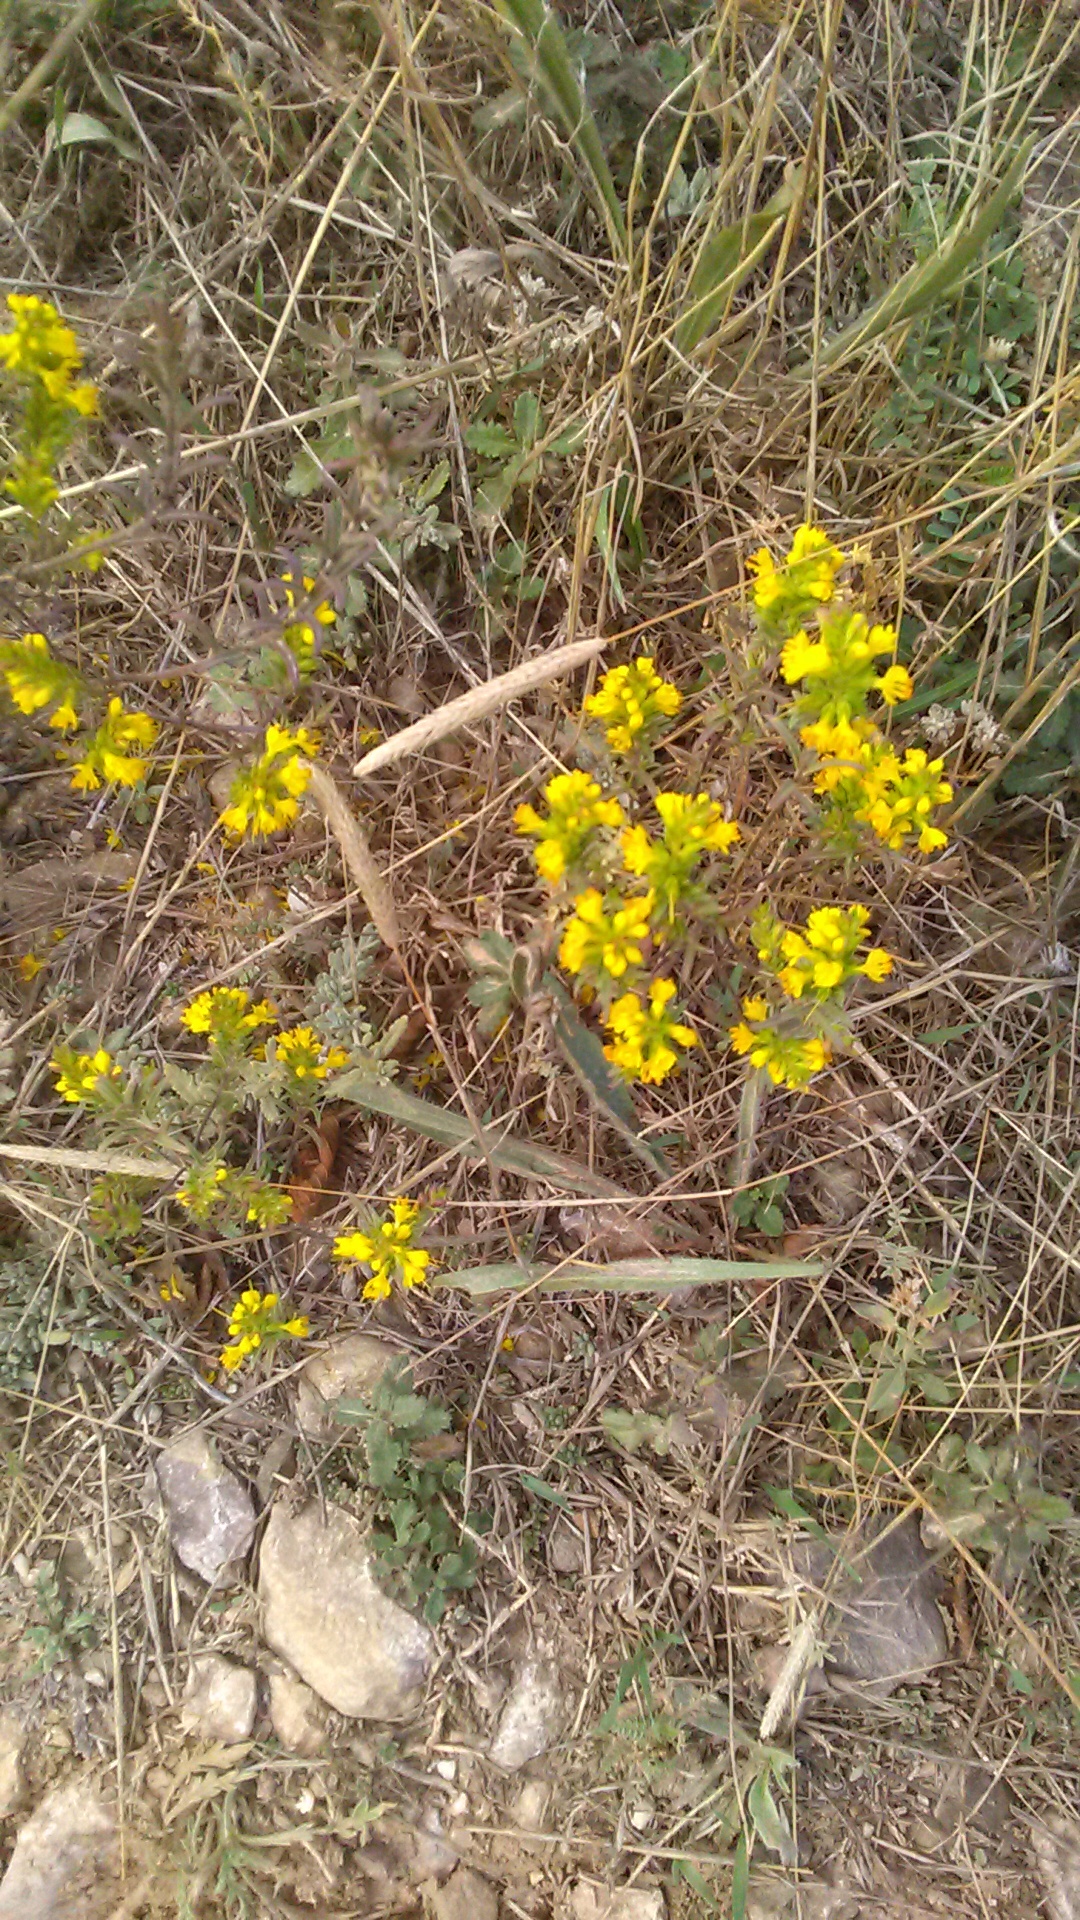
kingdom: Plantae
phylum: Tracheophyta
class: Magnoliopsida
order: Lamiales
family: Orobanchaceae
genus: Odontites
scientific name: Odontites luteus
